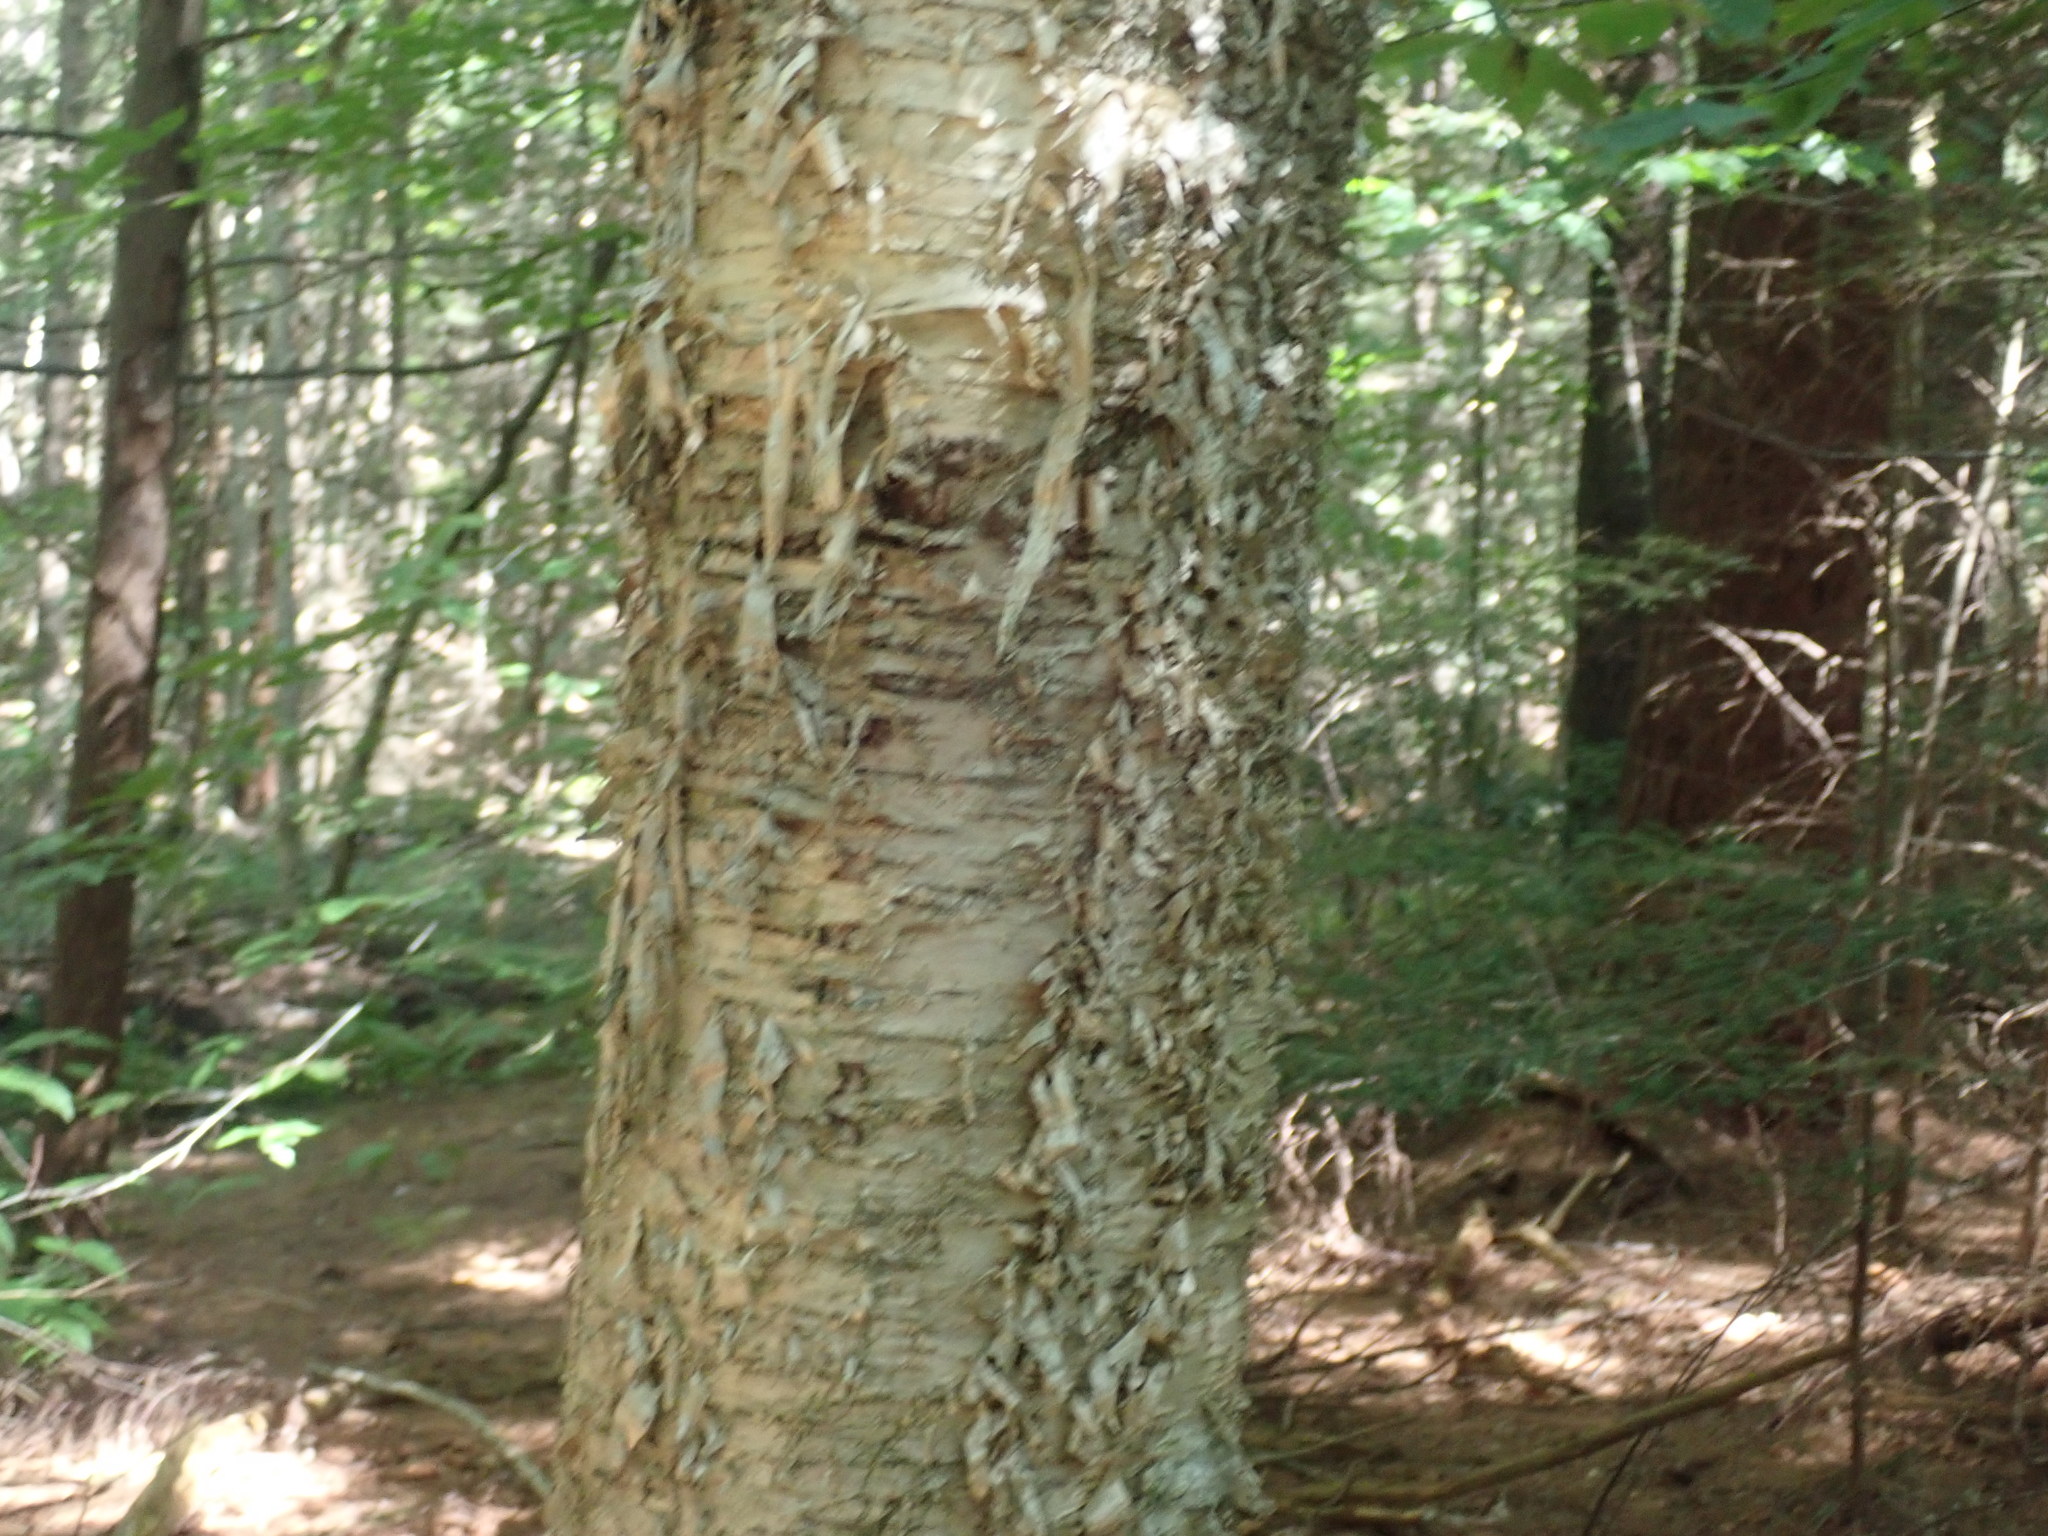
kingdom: Plantae
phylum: Tracheophyta
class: Magnoliopsida
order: Fagales
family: Betulaceae
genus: Betula
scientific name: Betula alleghaniensis
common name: Yellow birch
